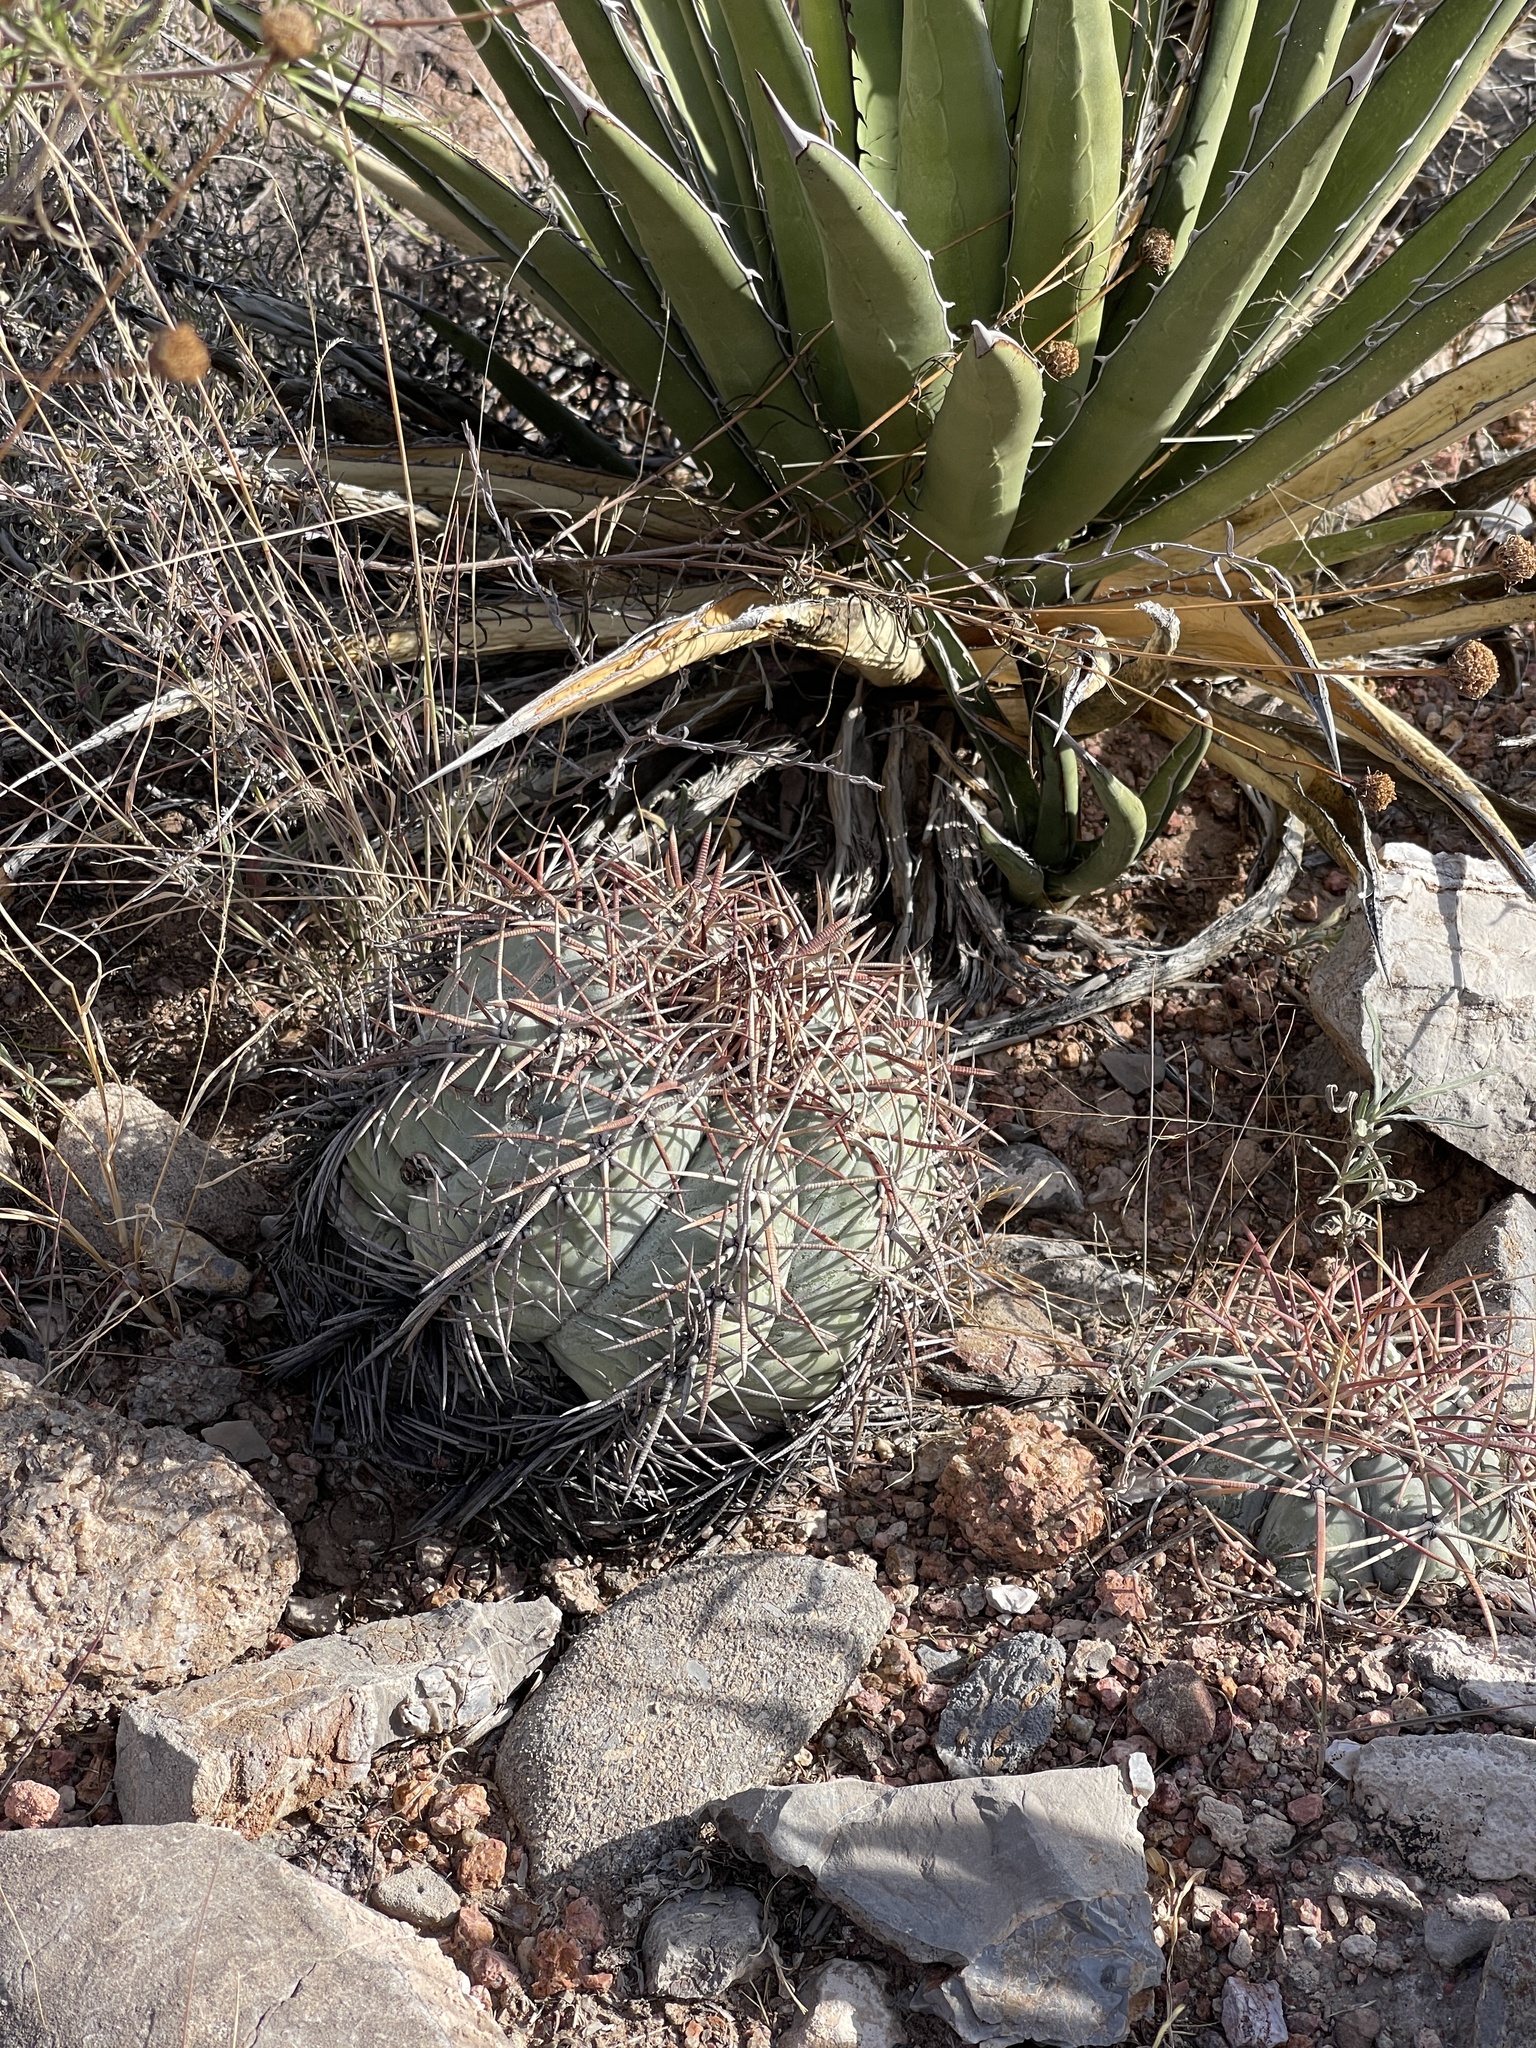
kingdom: Plantae
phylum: Tracheophyta
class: Magnoliopsida
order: Caryophyllales
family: Cactaceae
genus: Echinocactus
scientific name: Echinocactus horizonthalonius
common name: Devilshead
